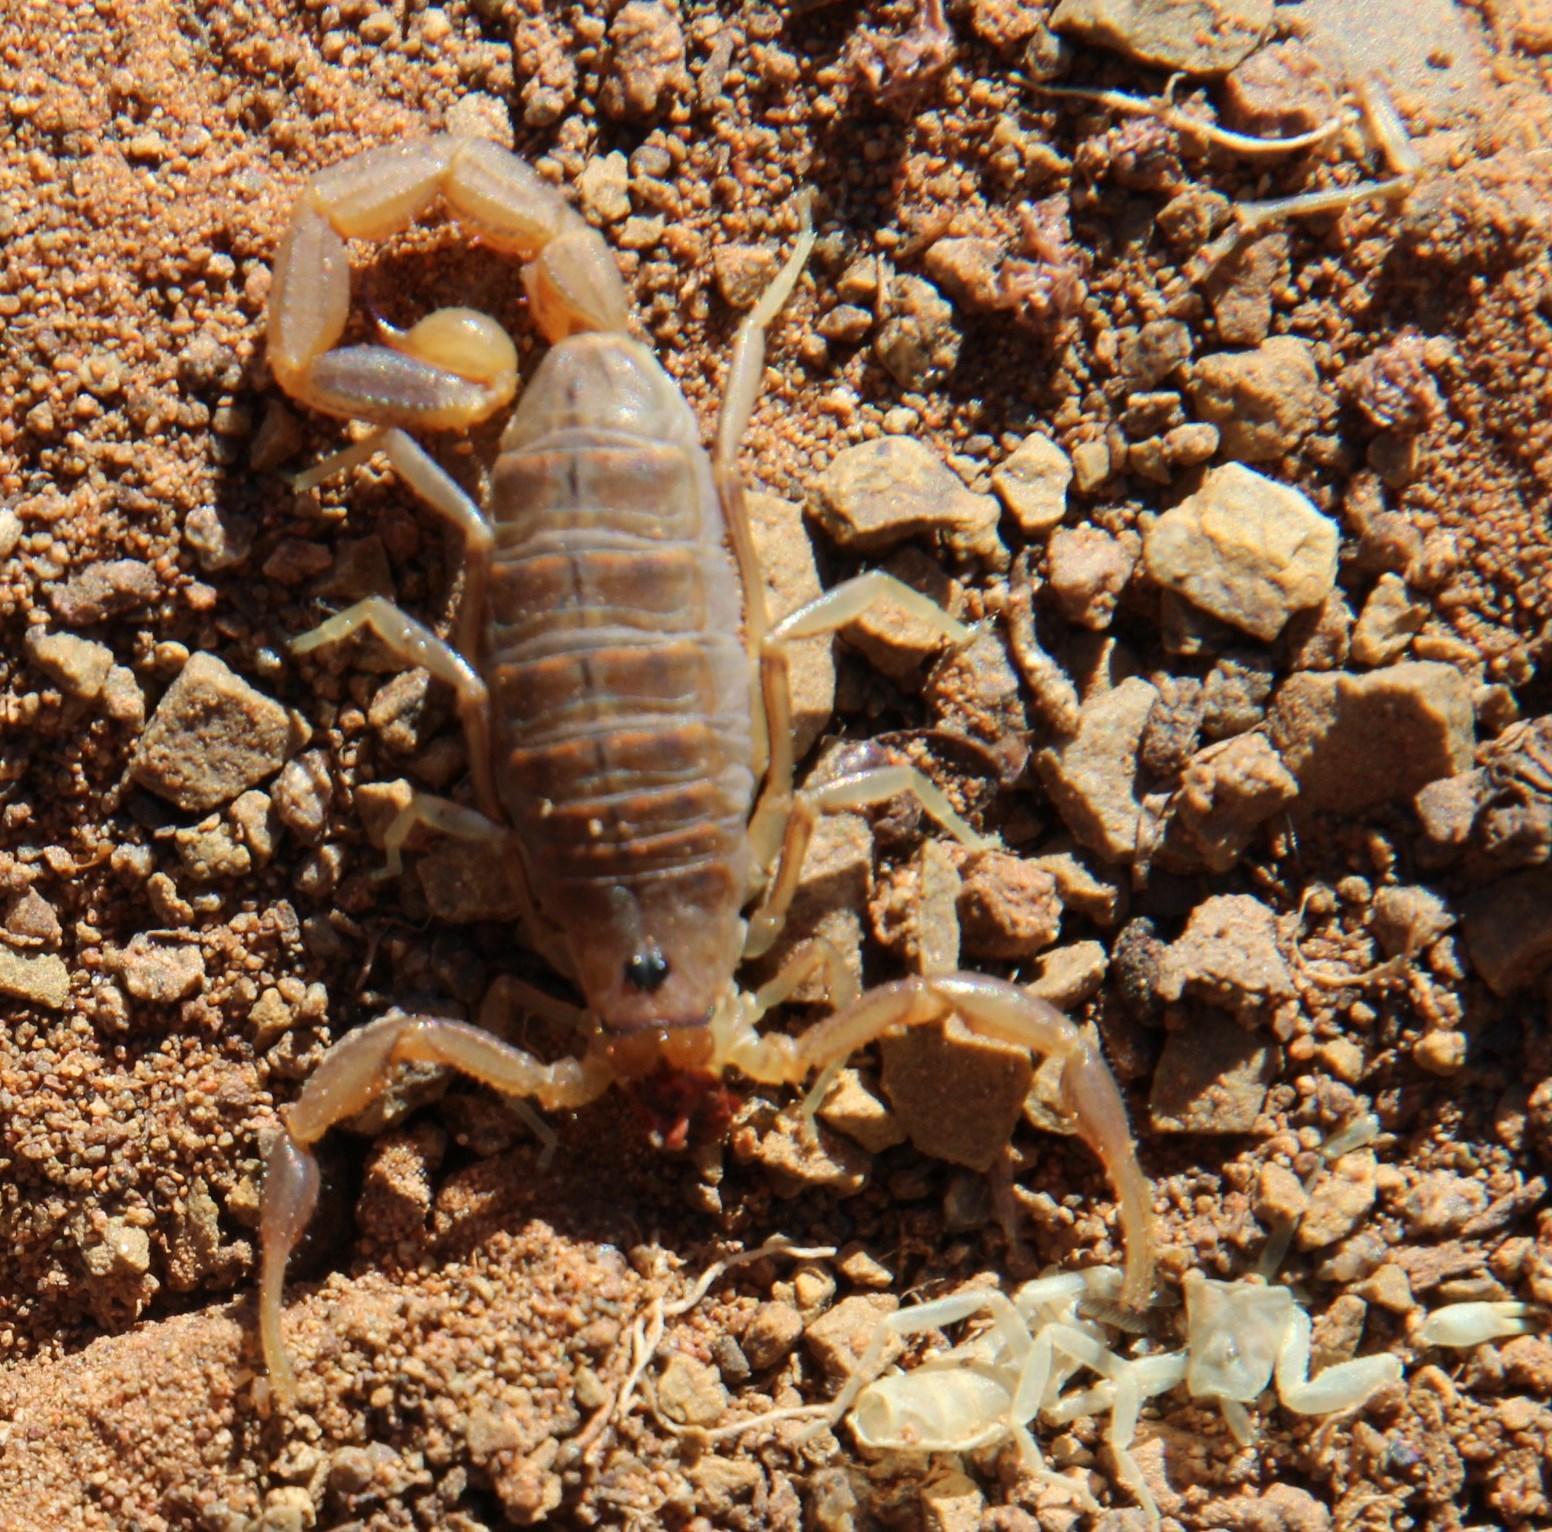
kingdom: Animalia
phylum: Arthropoda
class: Arachnida
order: Scorpiones
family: Buthidae
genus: Uroplectes
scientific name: Uroplectes gracilior
